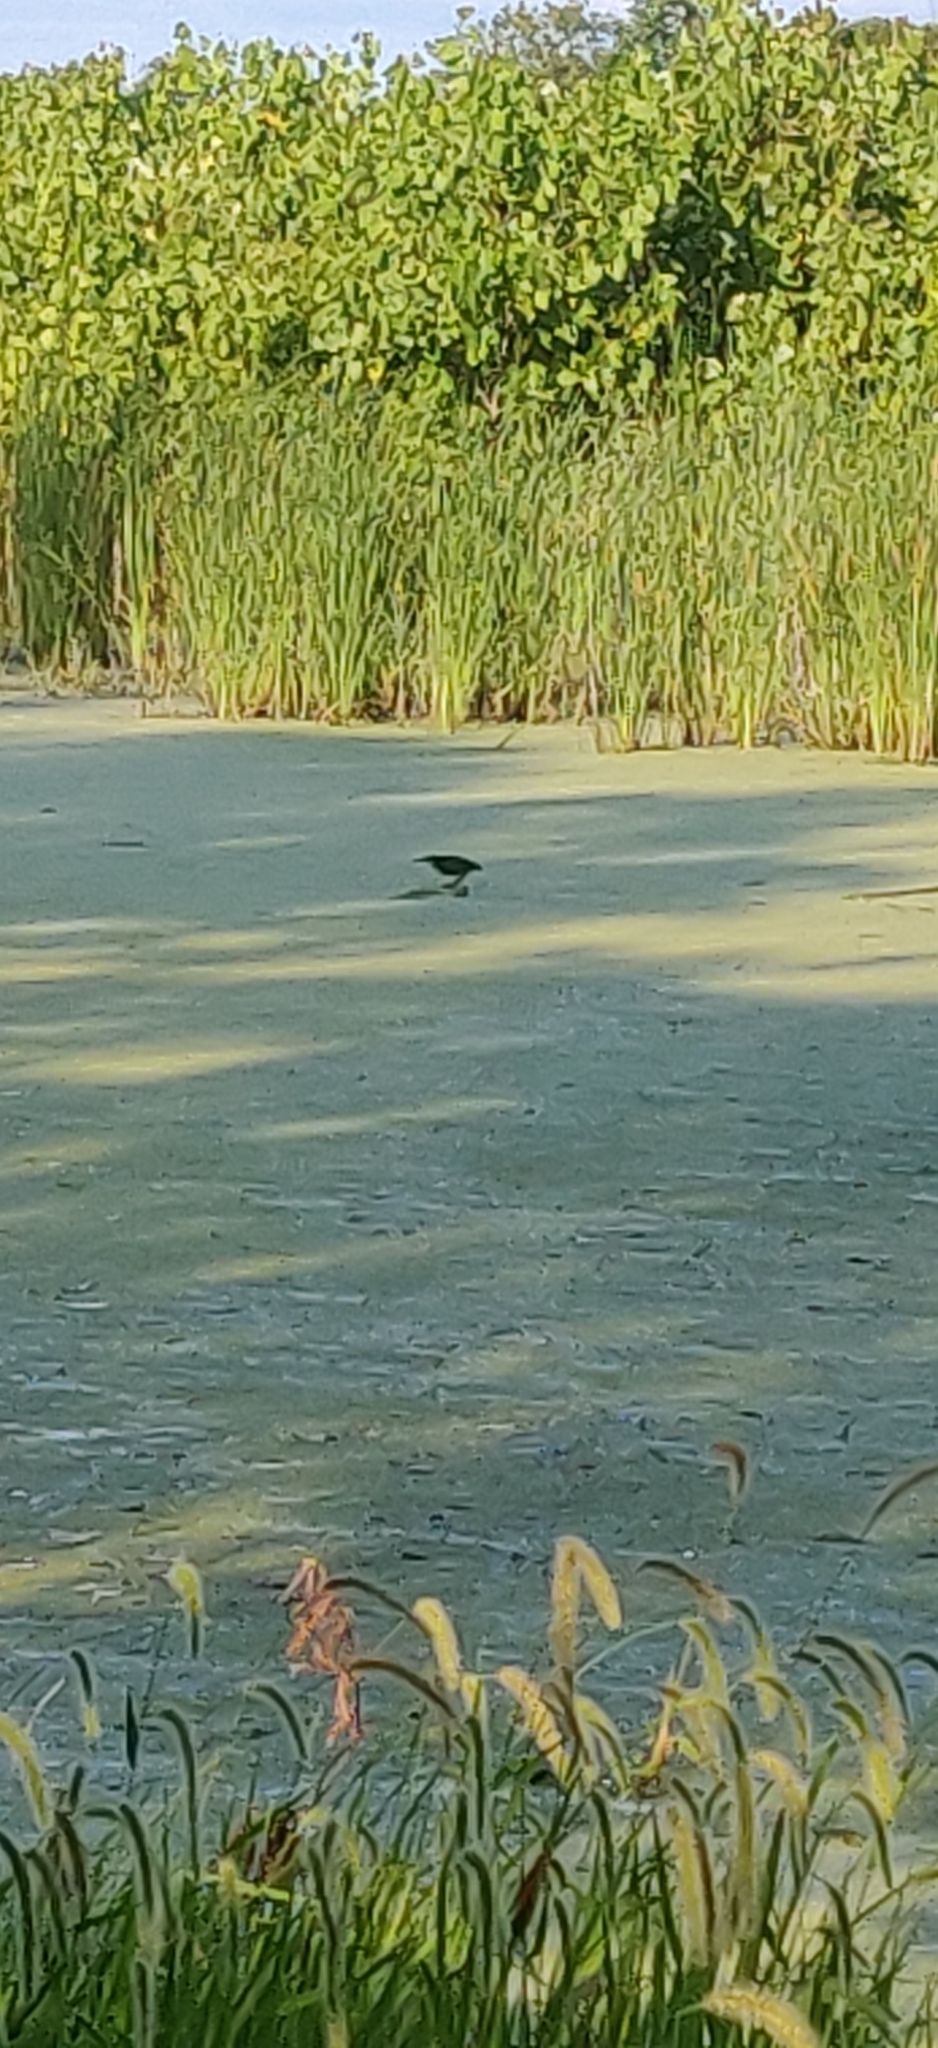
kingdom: Animalia
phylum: Chordata
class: Aves
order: Pelecaniformes
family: Ardeidae
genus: Butorides
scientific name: Butorides virescens
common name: Green heron
